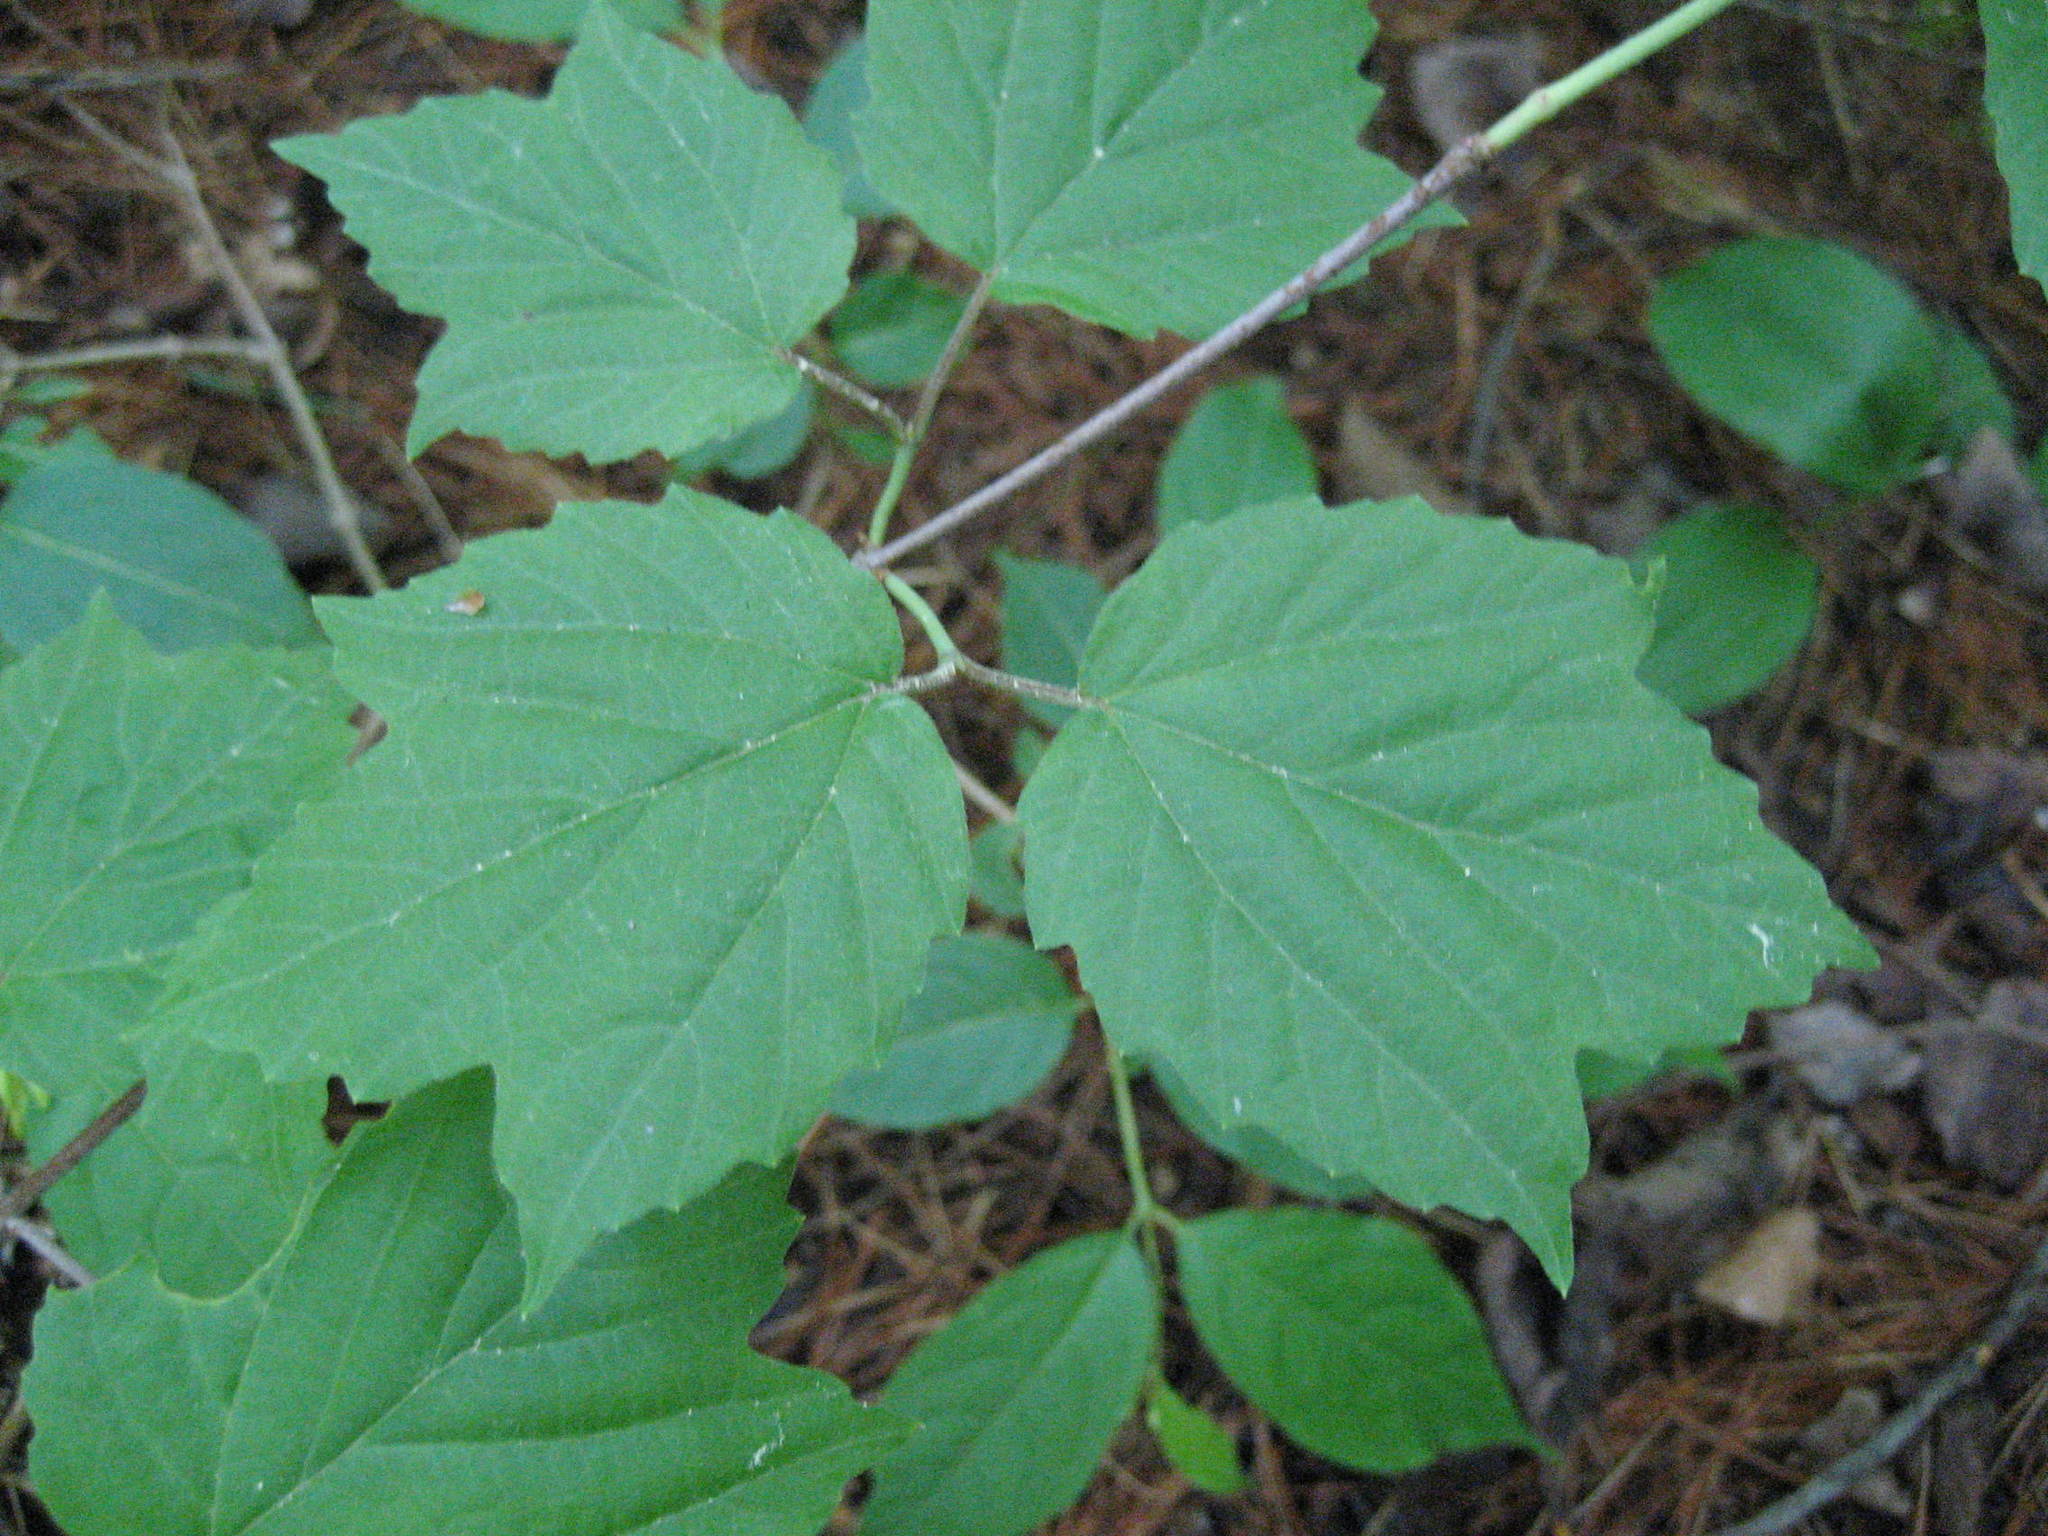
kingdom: Plantae
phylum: Tracheophyta
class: Magnoliopsida
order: Dipsacales
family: Viburnaceae
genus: Viburnum
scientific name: Viburnum acerifolium
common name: Dockmackie
